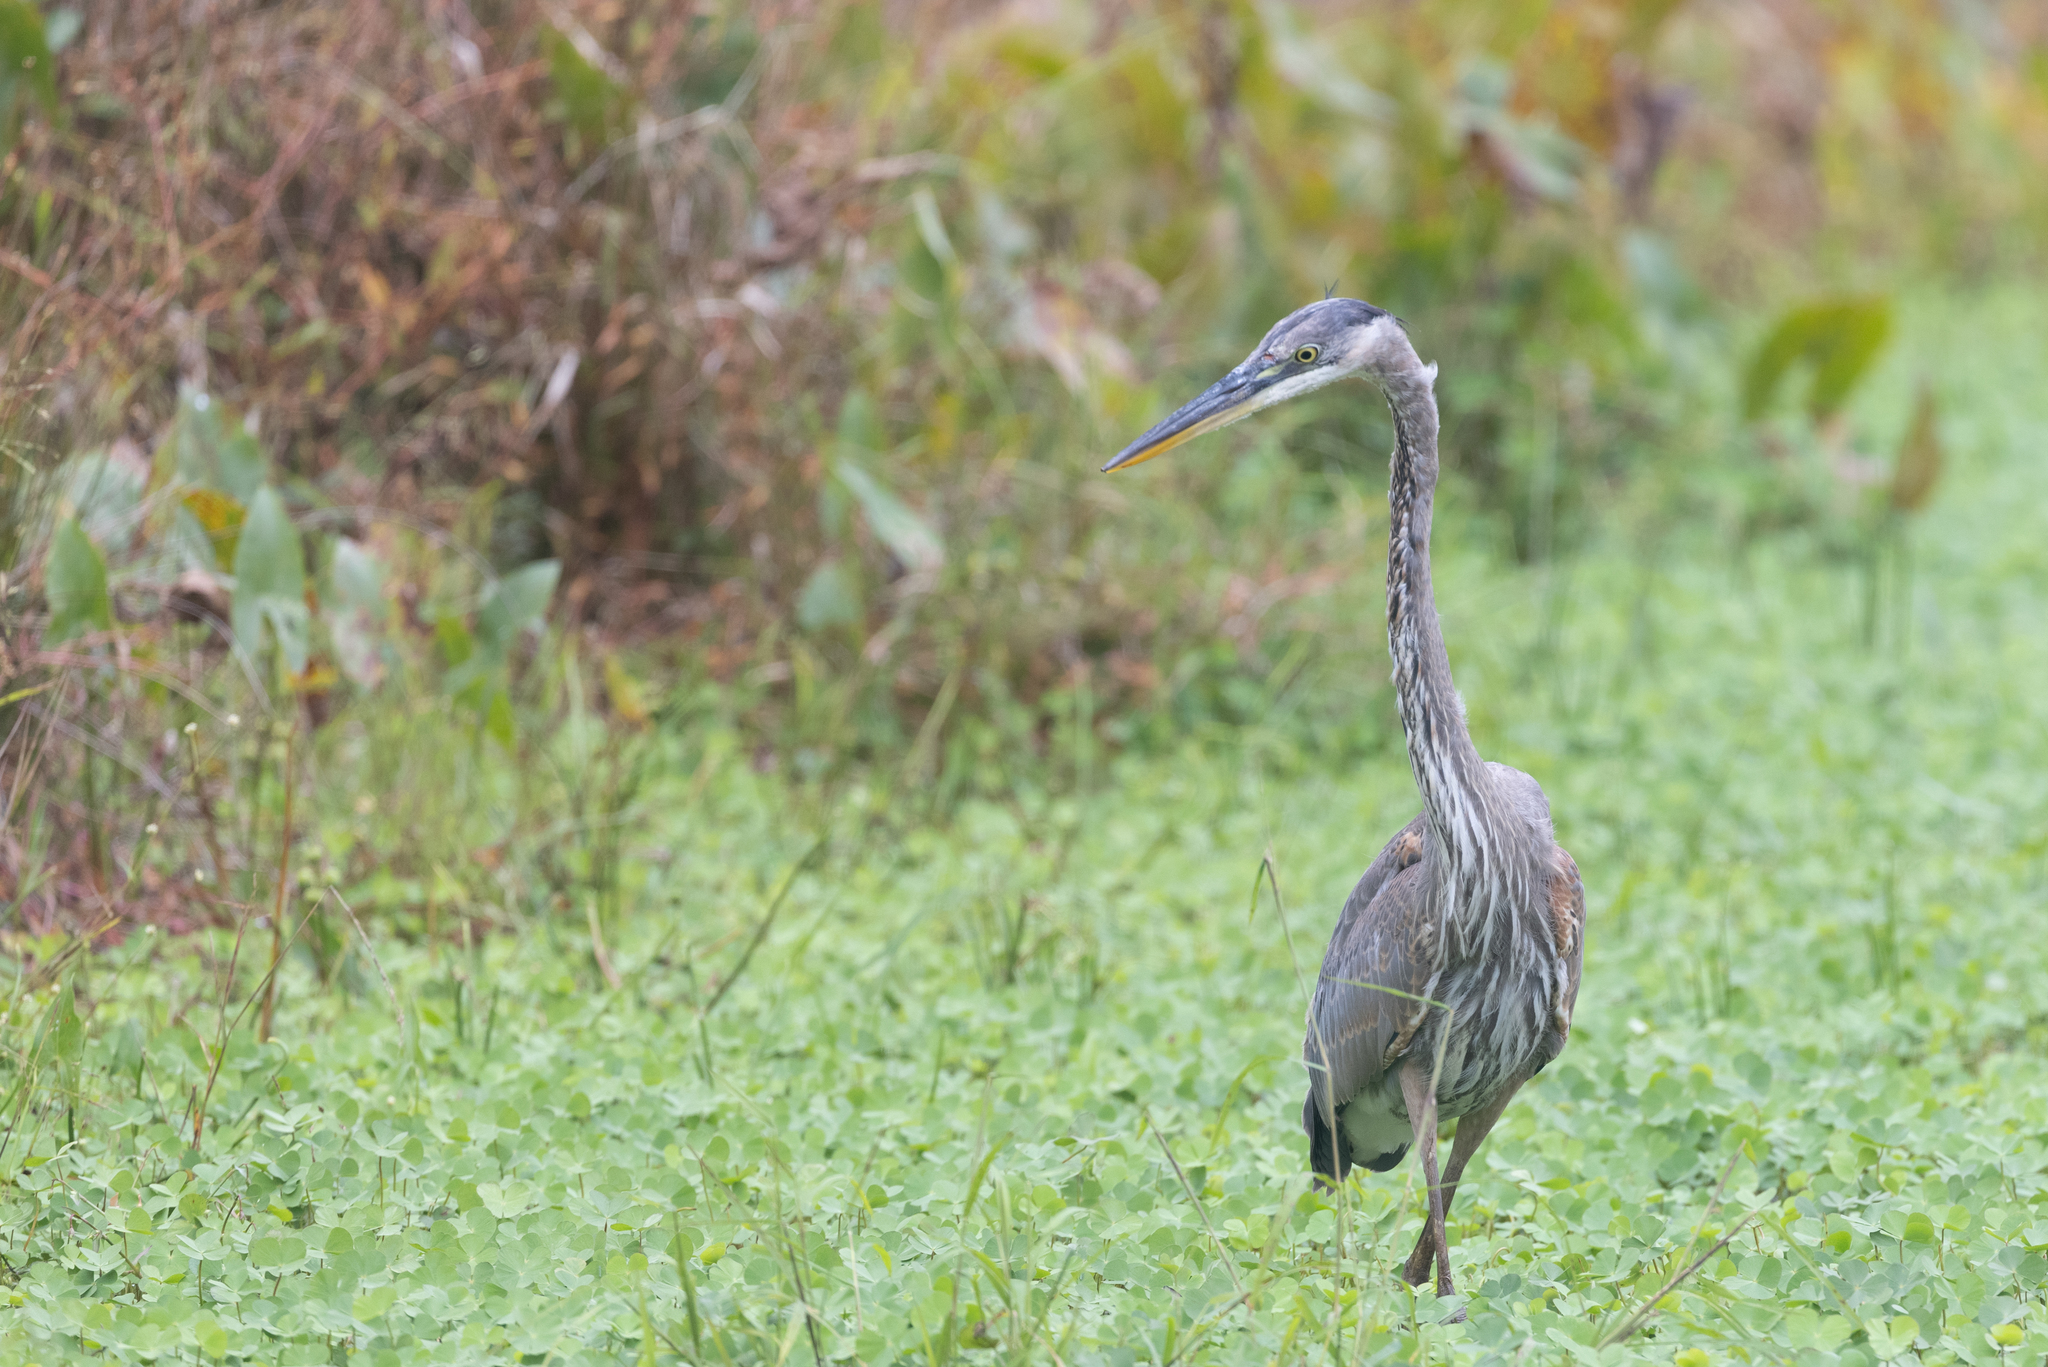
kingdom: Animalia
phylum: Chordata
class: Aves
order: Pelecaniformes
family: Ardeidae
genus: Ardea
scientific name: Ardea herodias
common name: Great blue heron
